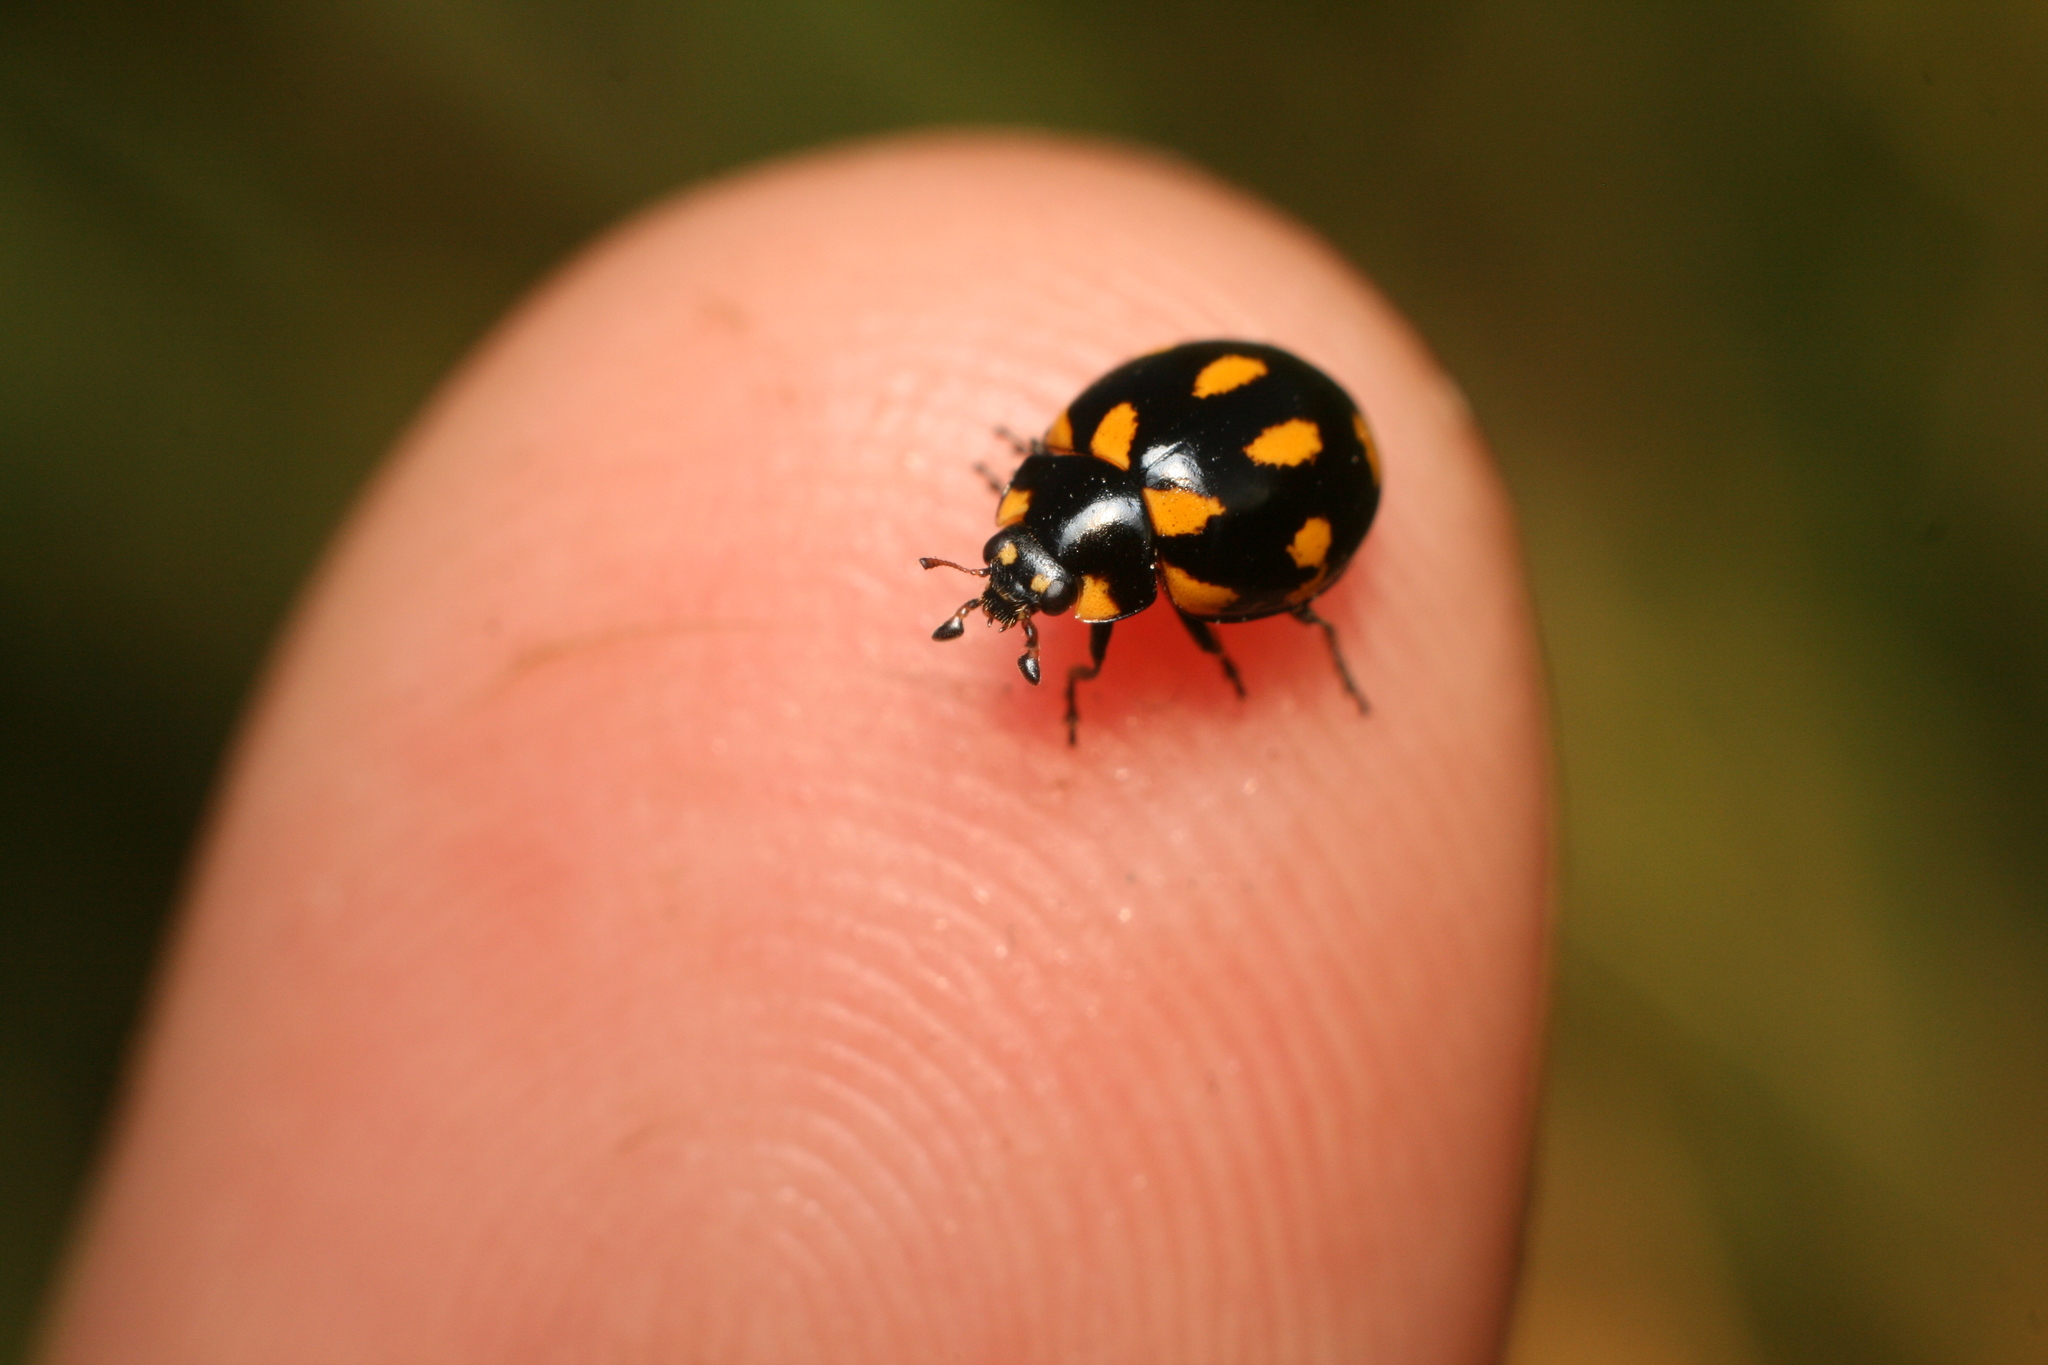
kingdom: Animalia
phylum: Arthropoda
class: Insecta
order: Coleoptera
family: Coccinellidae
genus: Coccinella
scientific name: Coccinella leonina
